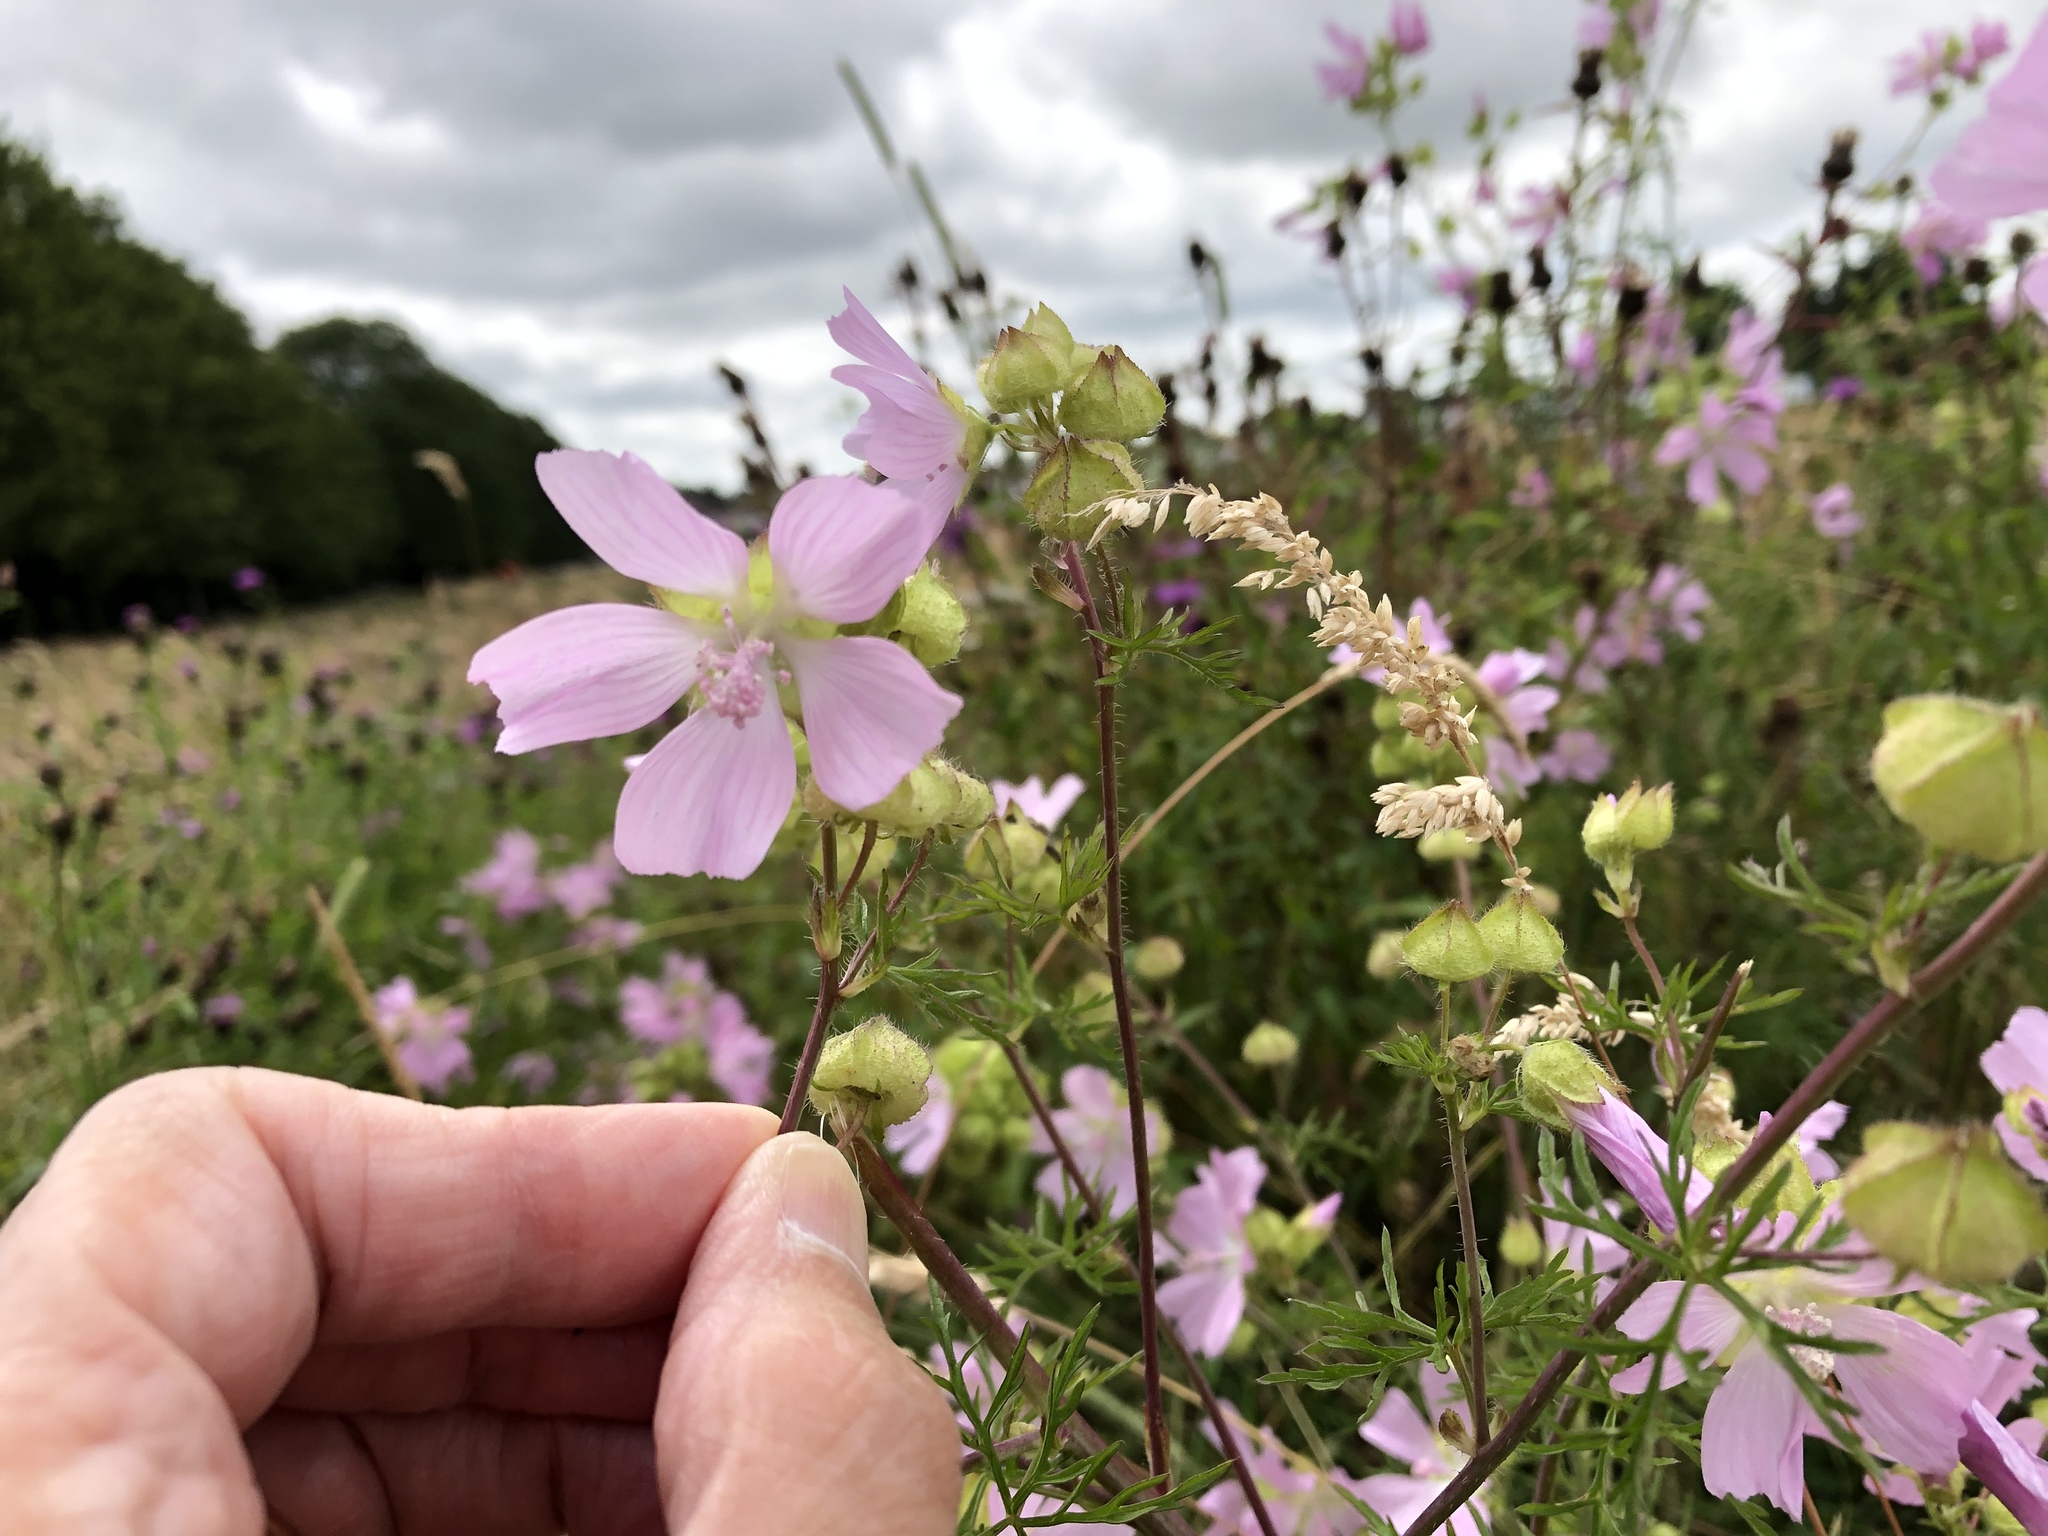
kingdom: Plantae
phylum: Tracheophyta
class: Magnoliopsida
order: Malvales
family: Malvaceae
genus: Malva
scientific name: Malva moschata
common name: Musk mallow
